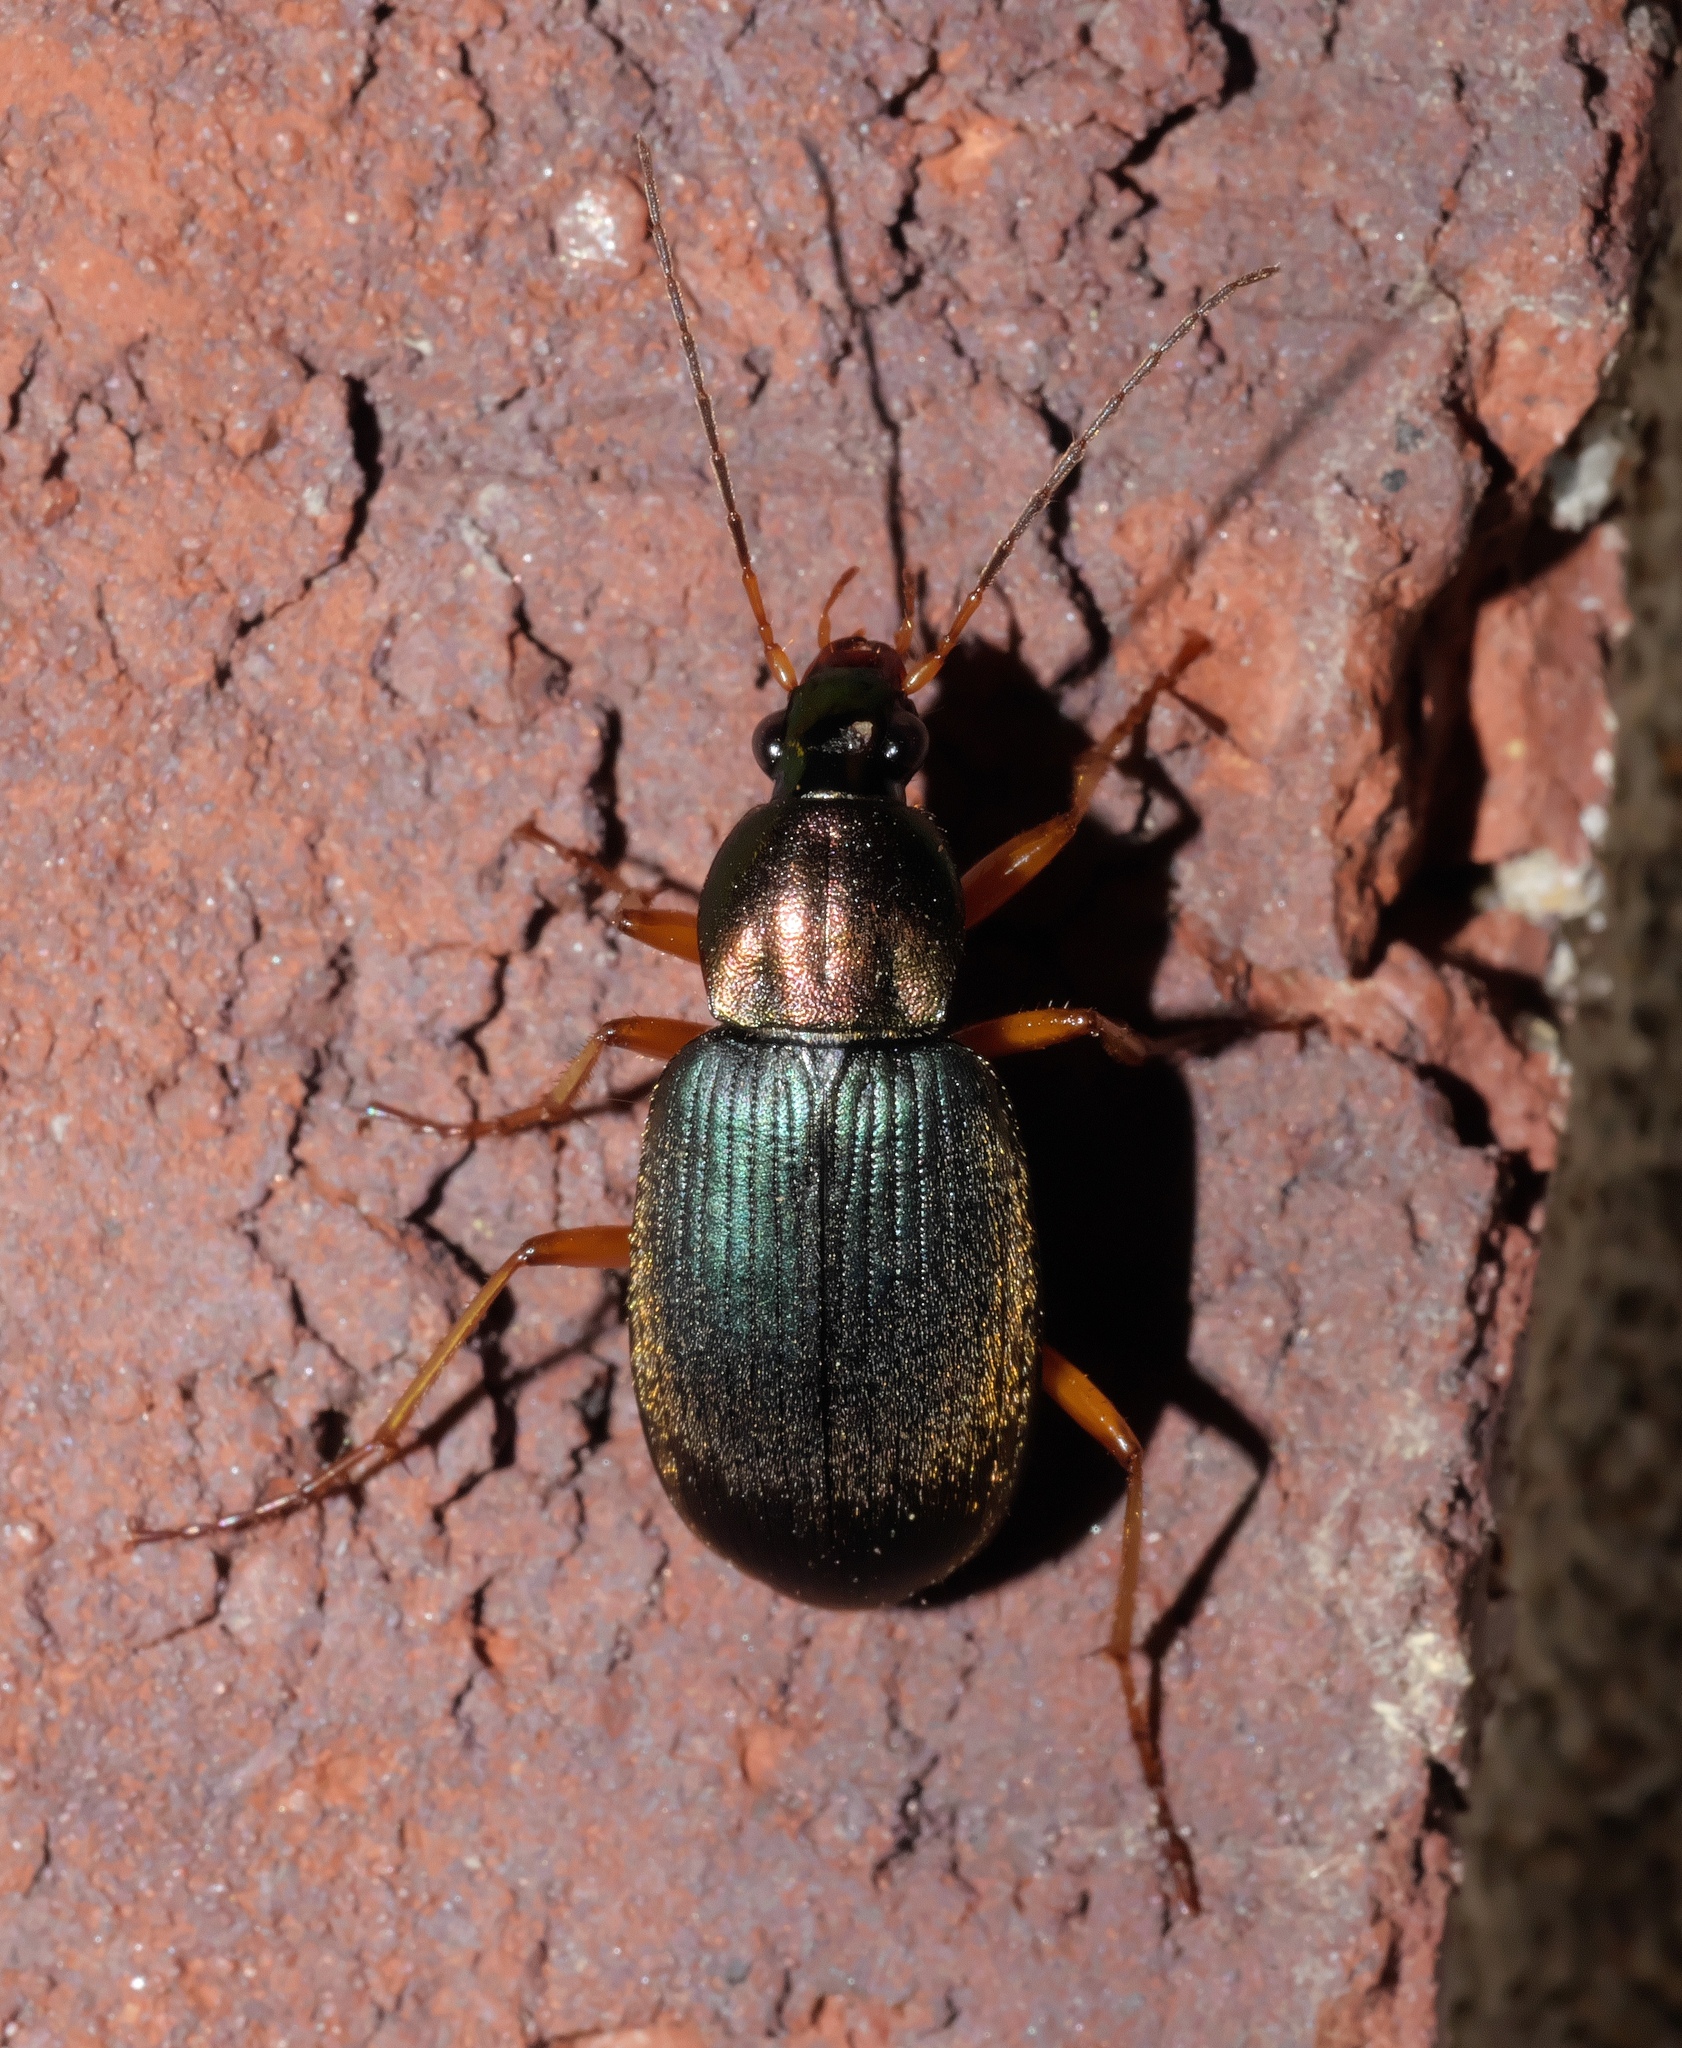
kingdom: Animalia
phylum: Arthropoda
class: Insecta
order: Coleoptera
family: Carabidae
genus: Chlaenius
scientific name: Chlaenius tricolor
